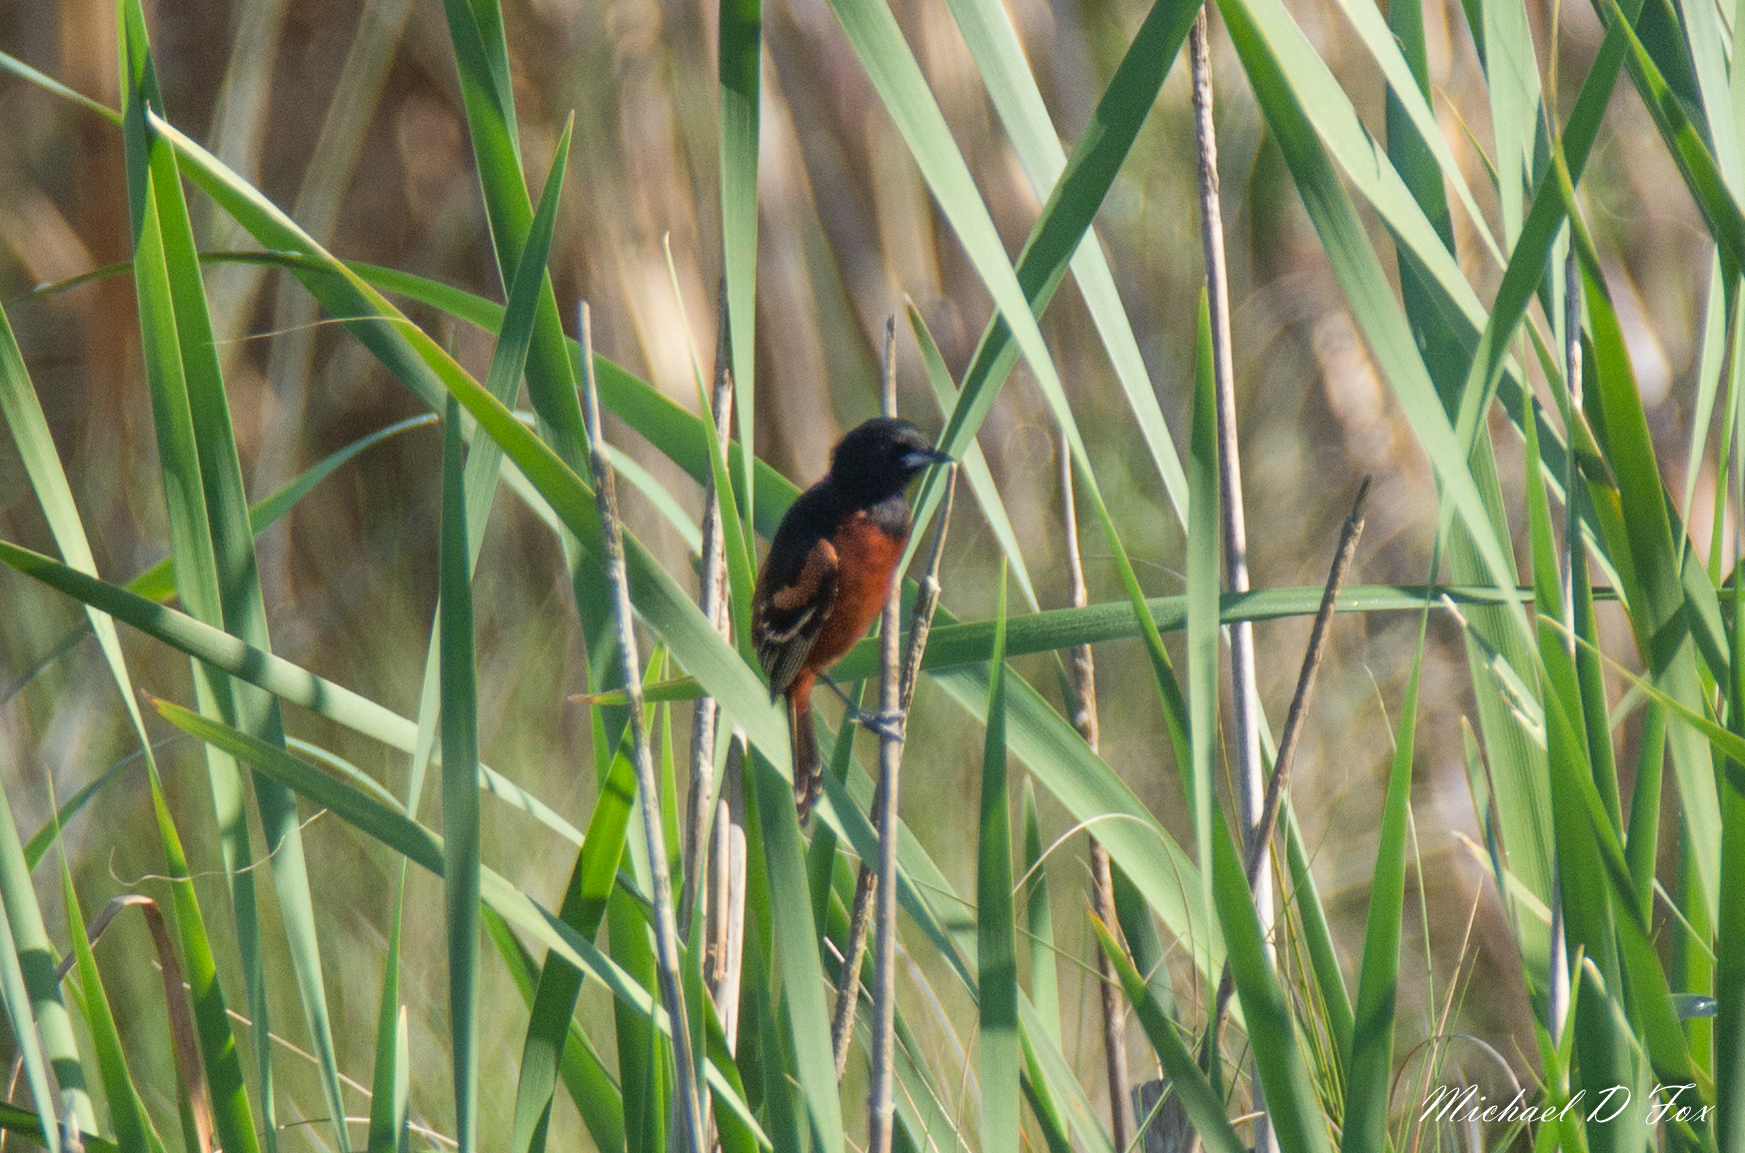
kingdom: Animalia
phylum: Chordata
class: Aves
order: Passeriformes
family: Icteridae
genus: Icterus
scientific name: Icterus spurius
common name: Orchard oriole
